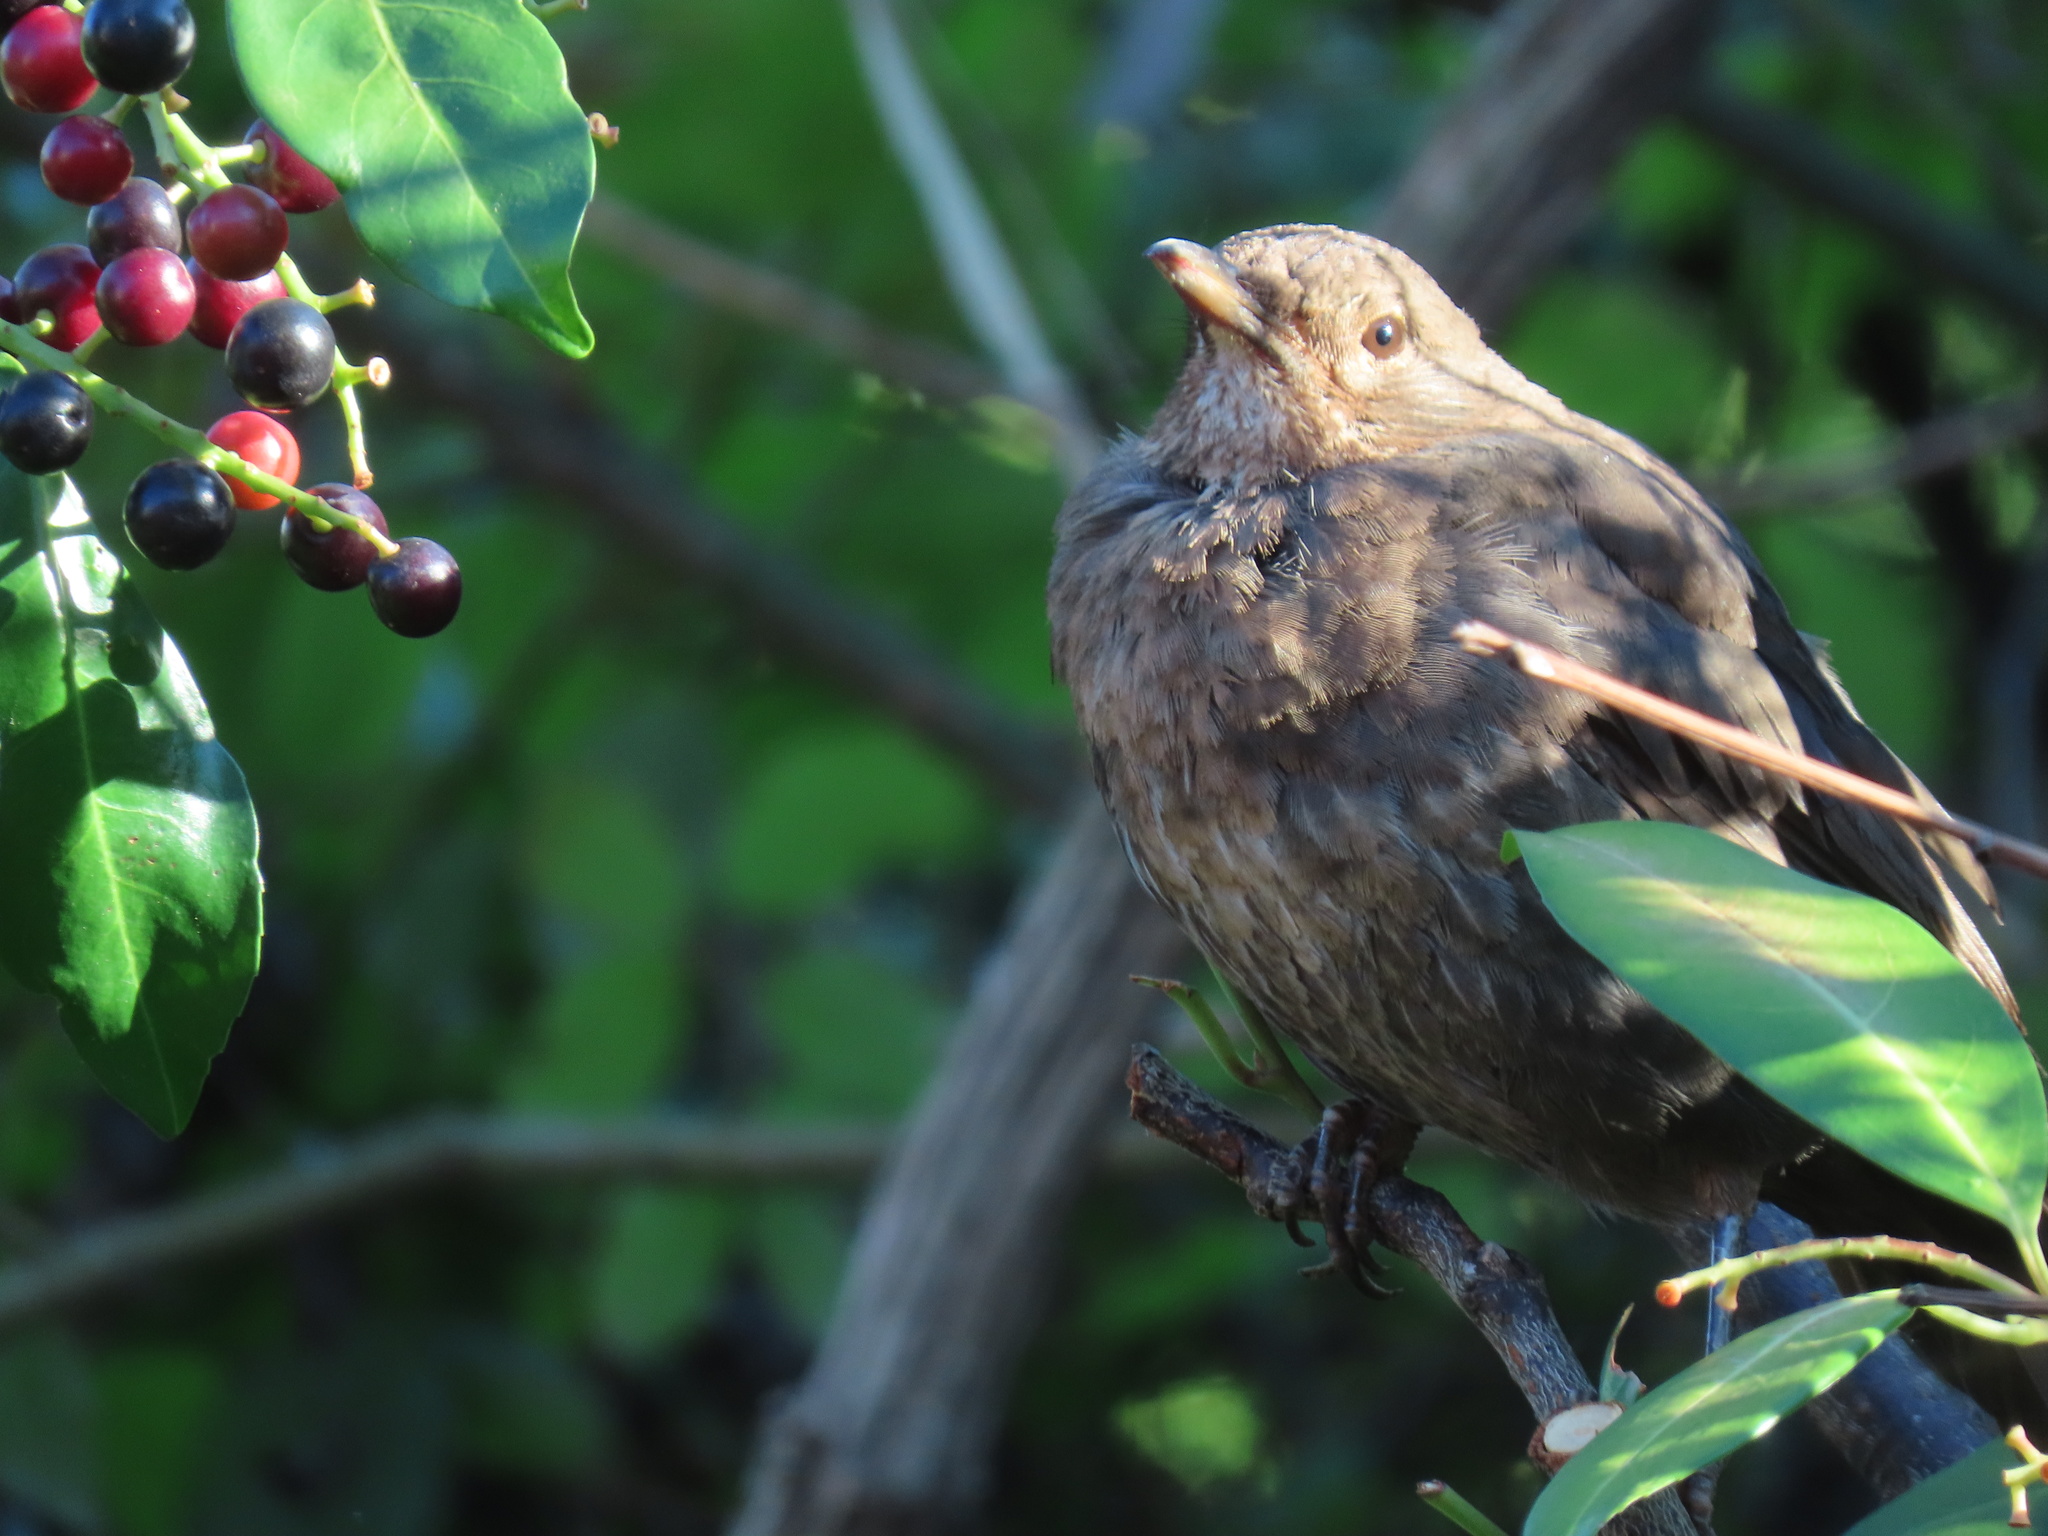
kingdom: Animalia
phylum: Chordata
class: Aves
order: Passeriformes
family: Turdidae
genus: Turdus
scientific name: Turdus merula
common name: Common blackbird
